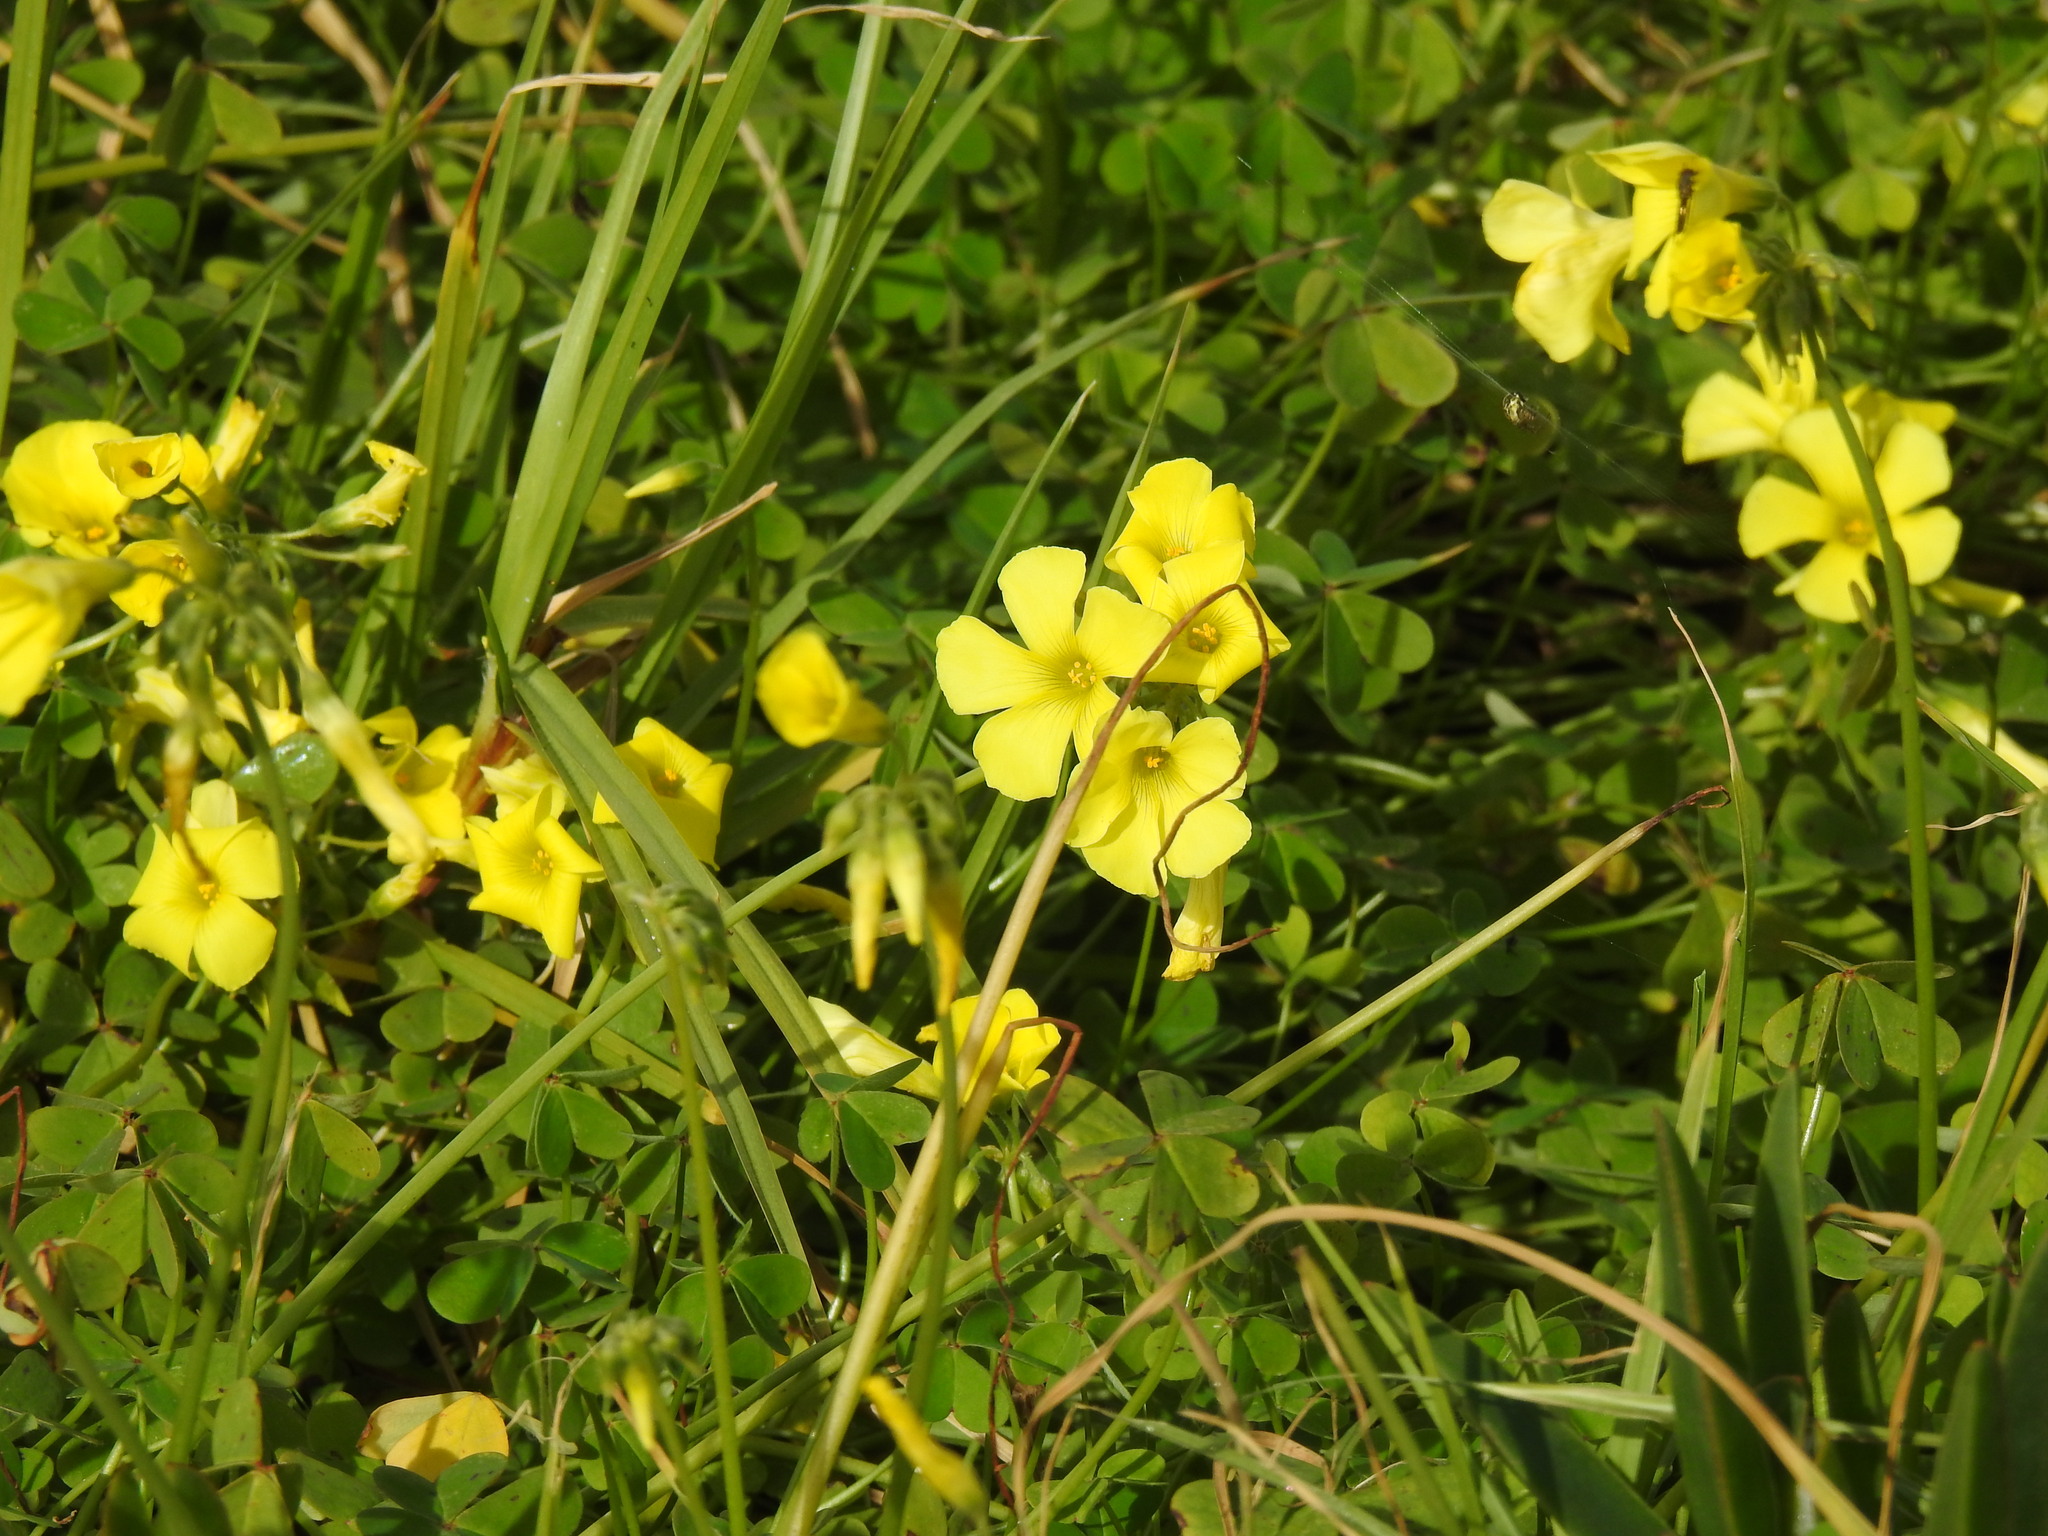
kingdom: Plantae
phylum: Tracheophyta
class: Magnoliopsida
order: Oxalidales
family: Oxalidaceae
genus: Oxalis
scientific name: Oxalis pes-caprae
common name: Bermuda-buttercup
